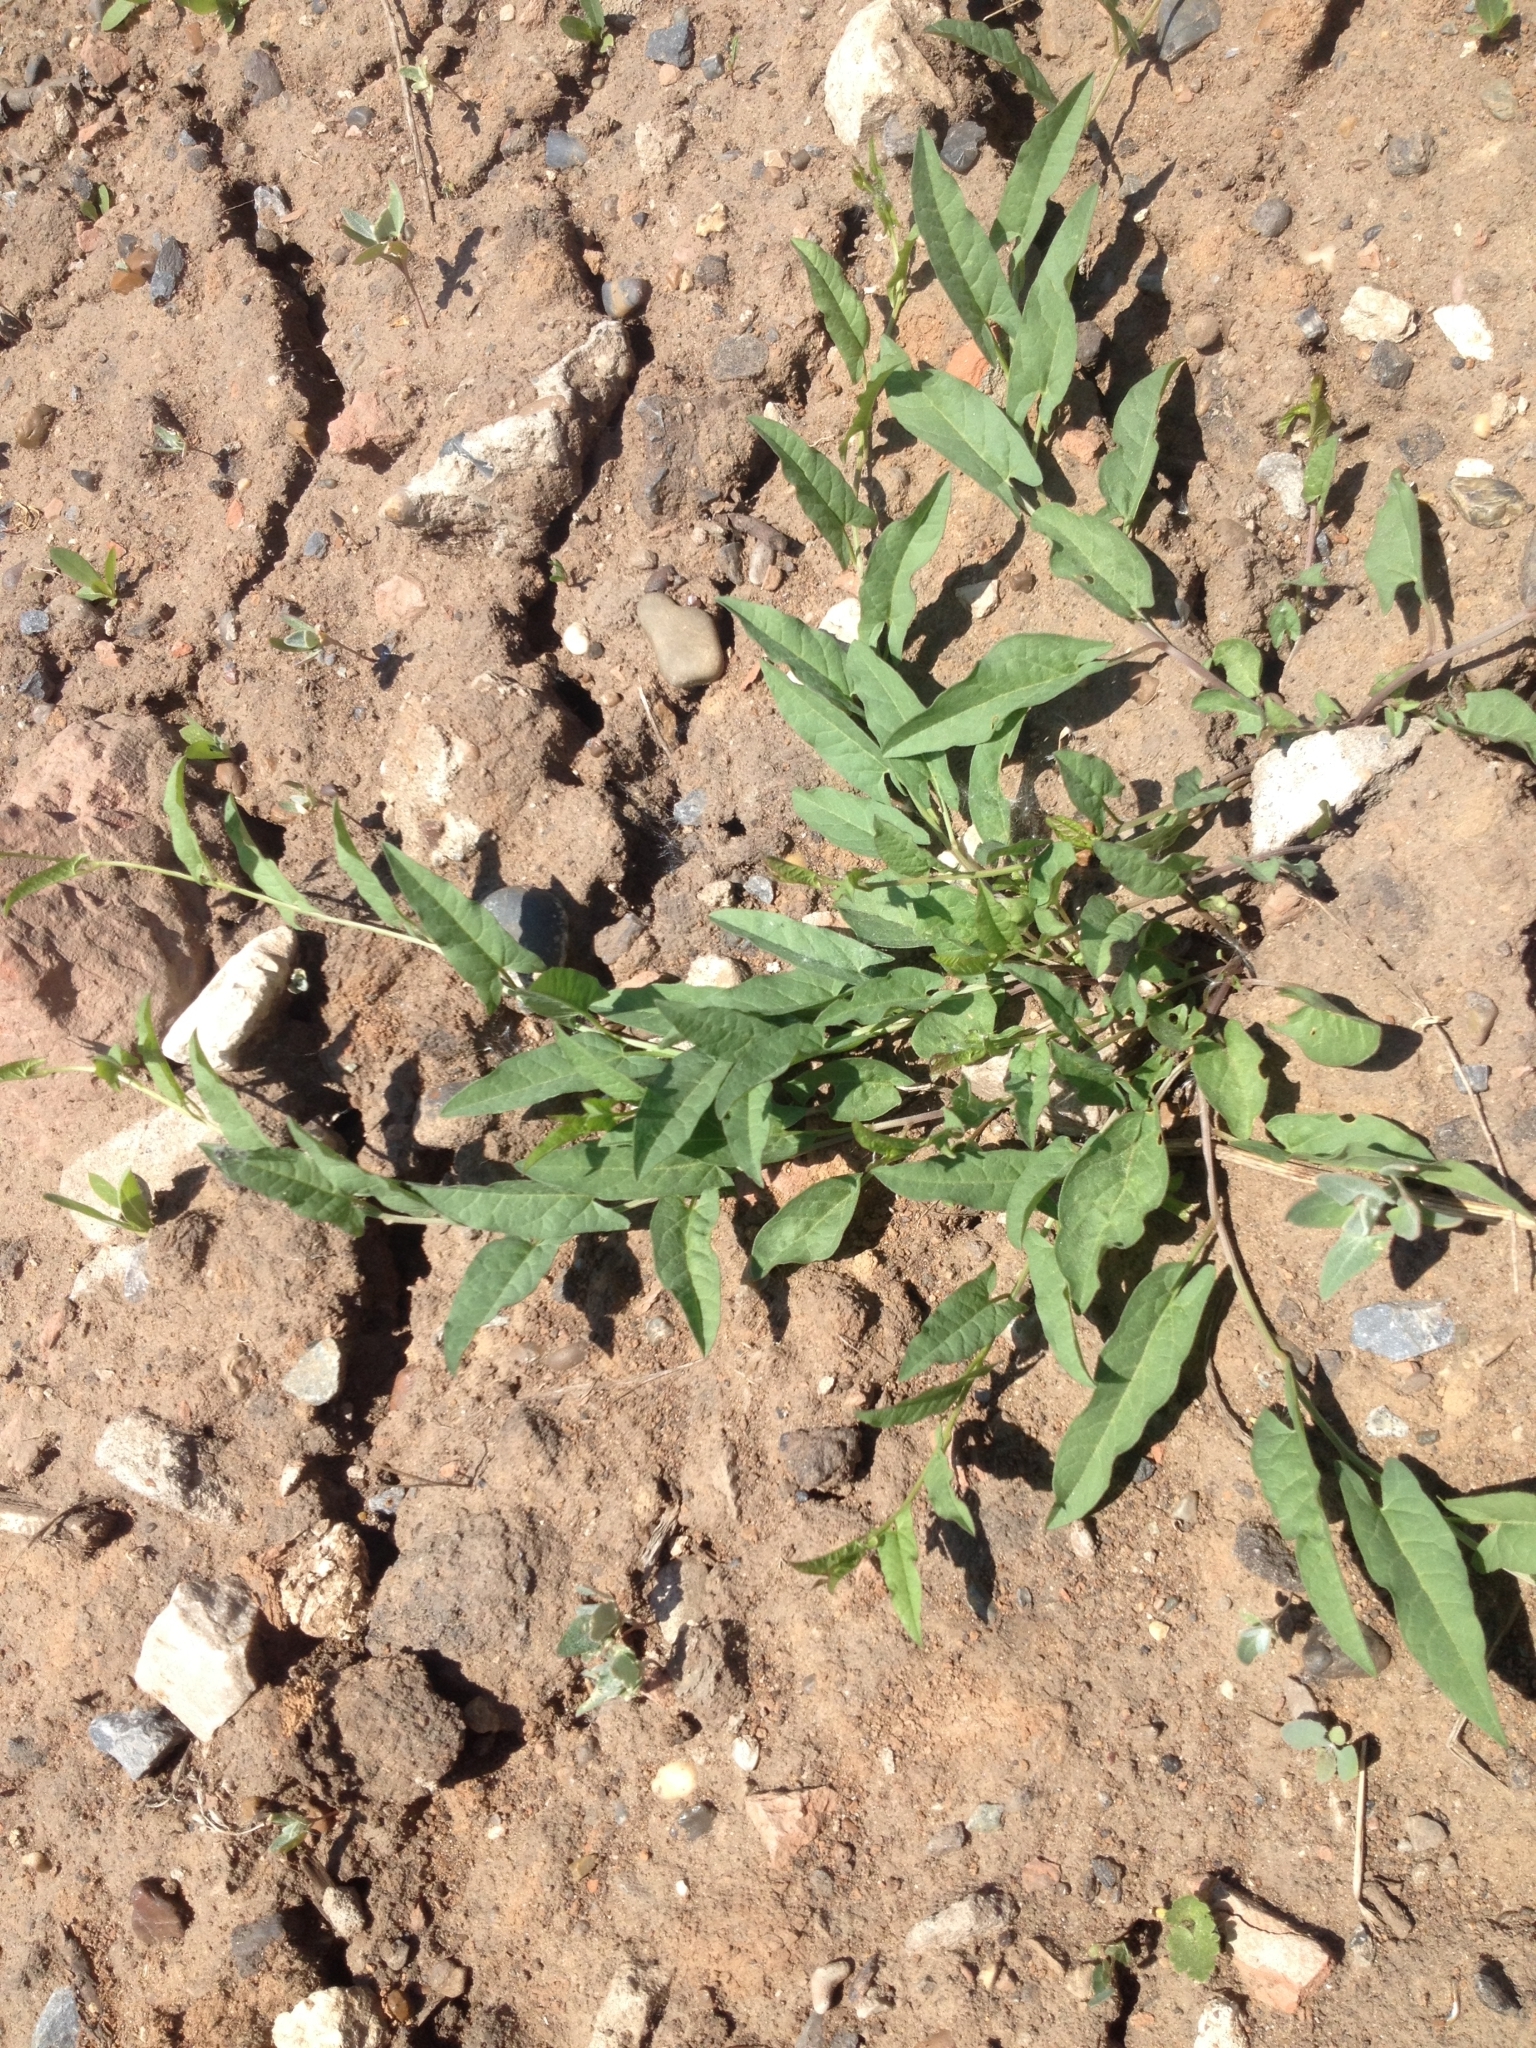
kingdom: Plantae
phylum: Tracheophyta
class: Magnoliopsida
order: Solanales
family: Convolvulaceae
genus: Convolvulus
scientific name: Convolvulus arvensis
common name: Field bindweed
